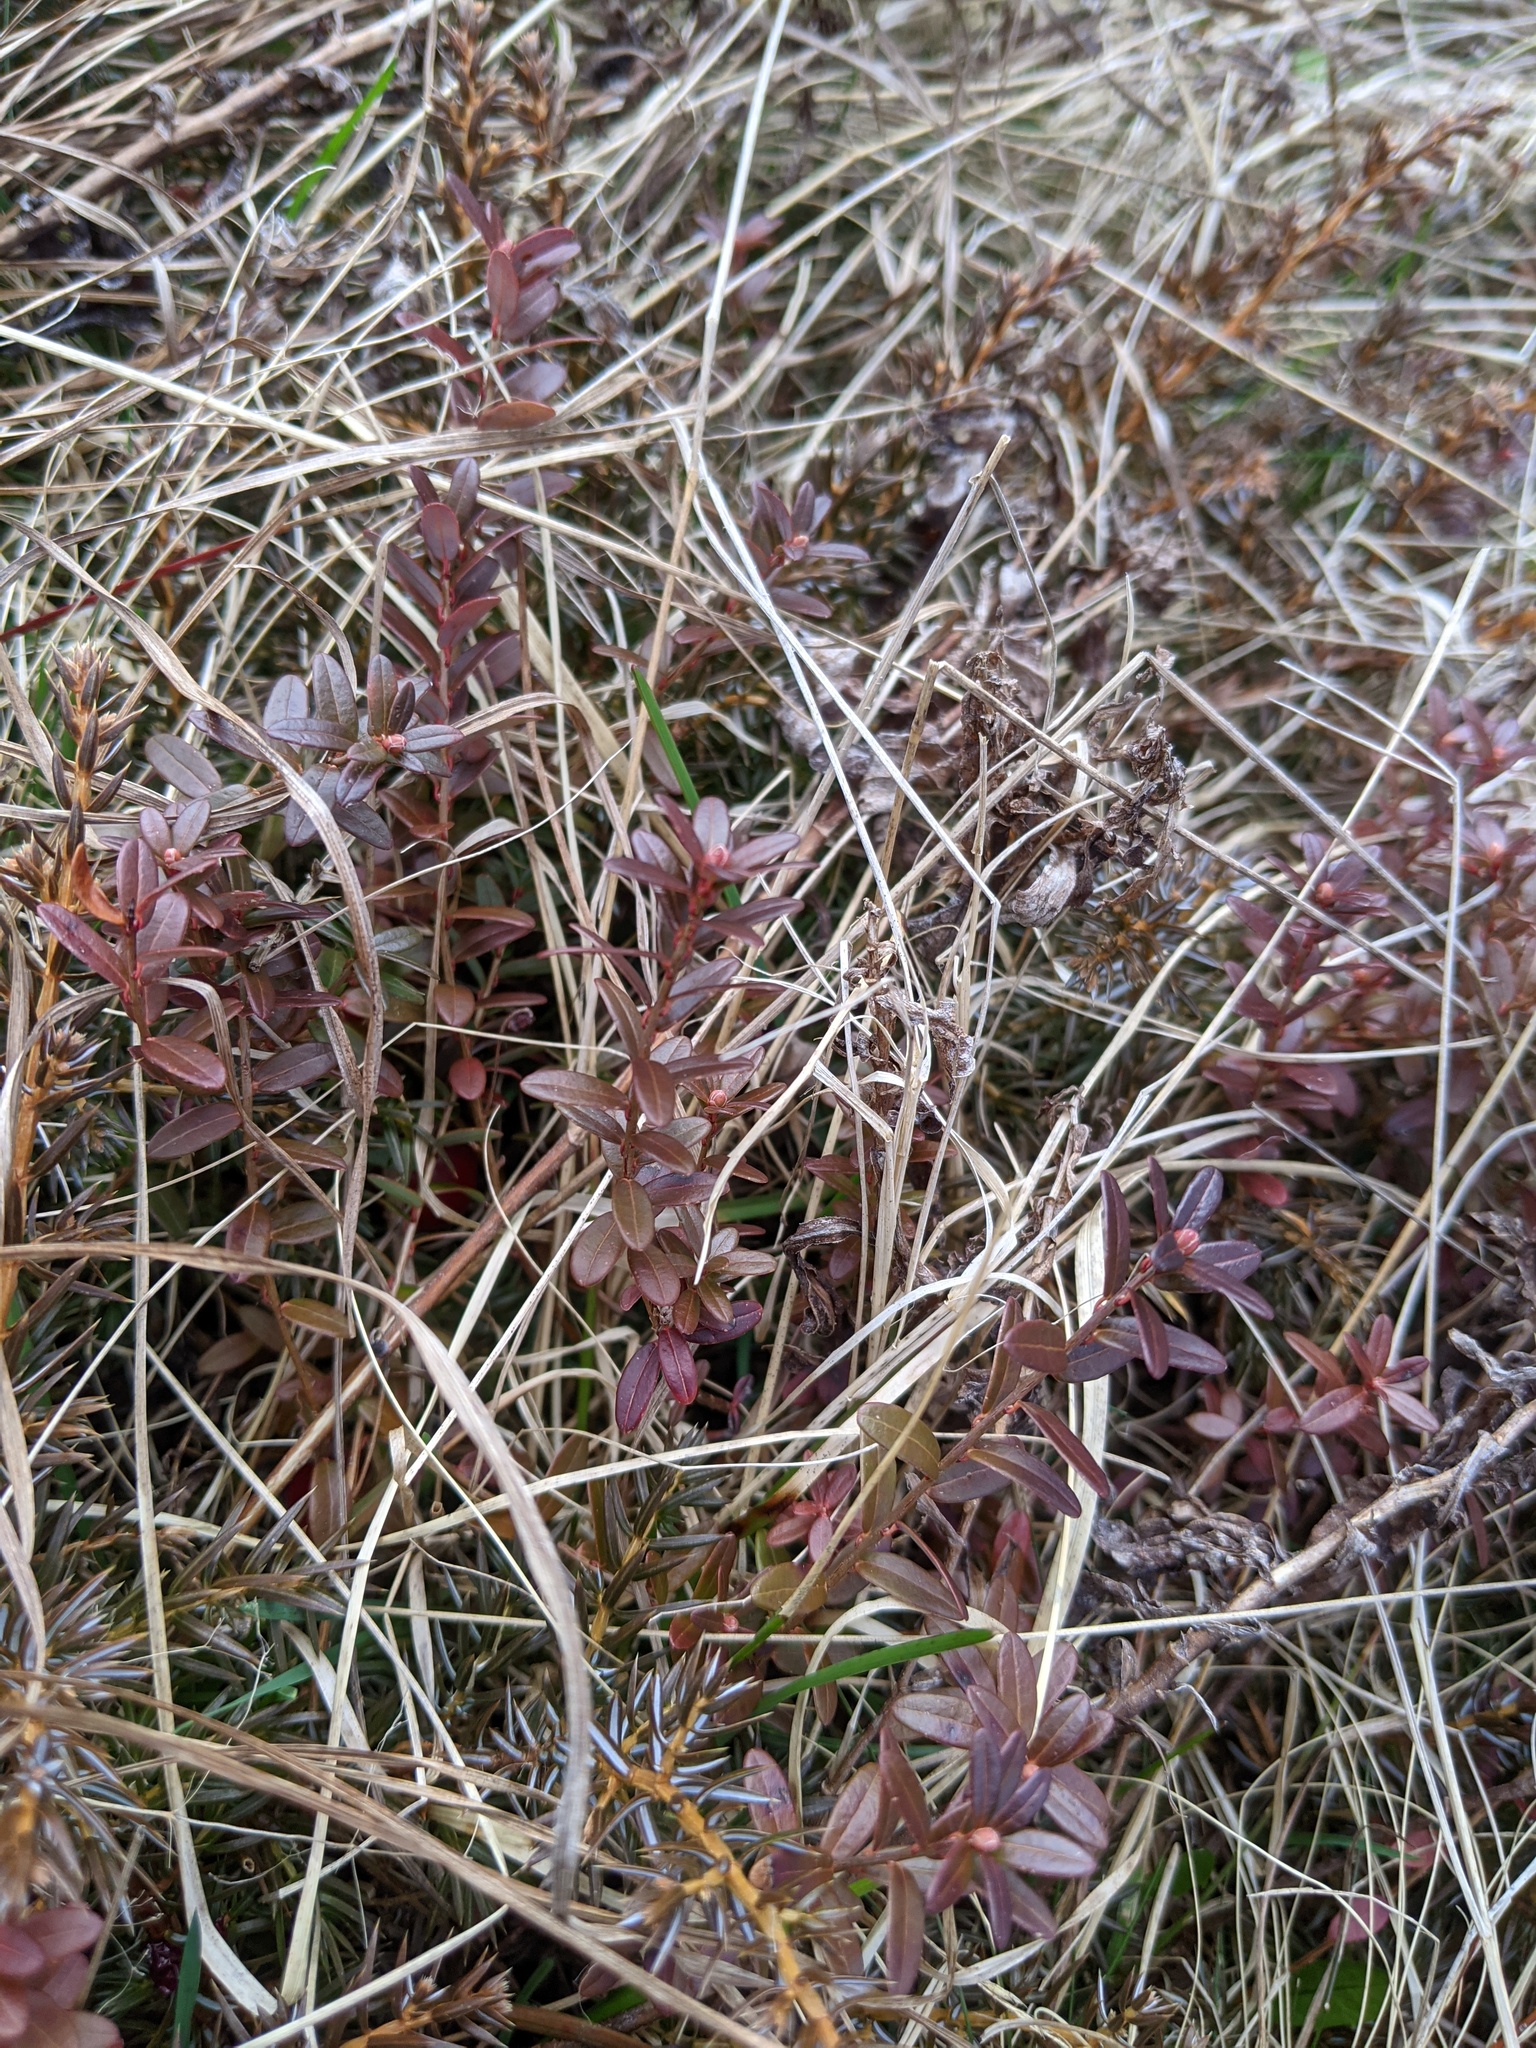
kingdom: Plantae
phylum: Tracheophyta
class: Magnoliopsida
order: Ericales
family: Ericaceae
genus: Vaccinium
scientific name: Vaccinium macrocarpon
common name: American cranberry
